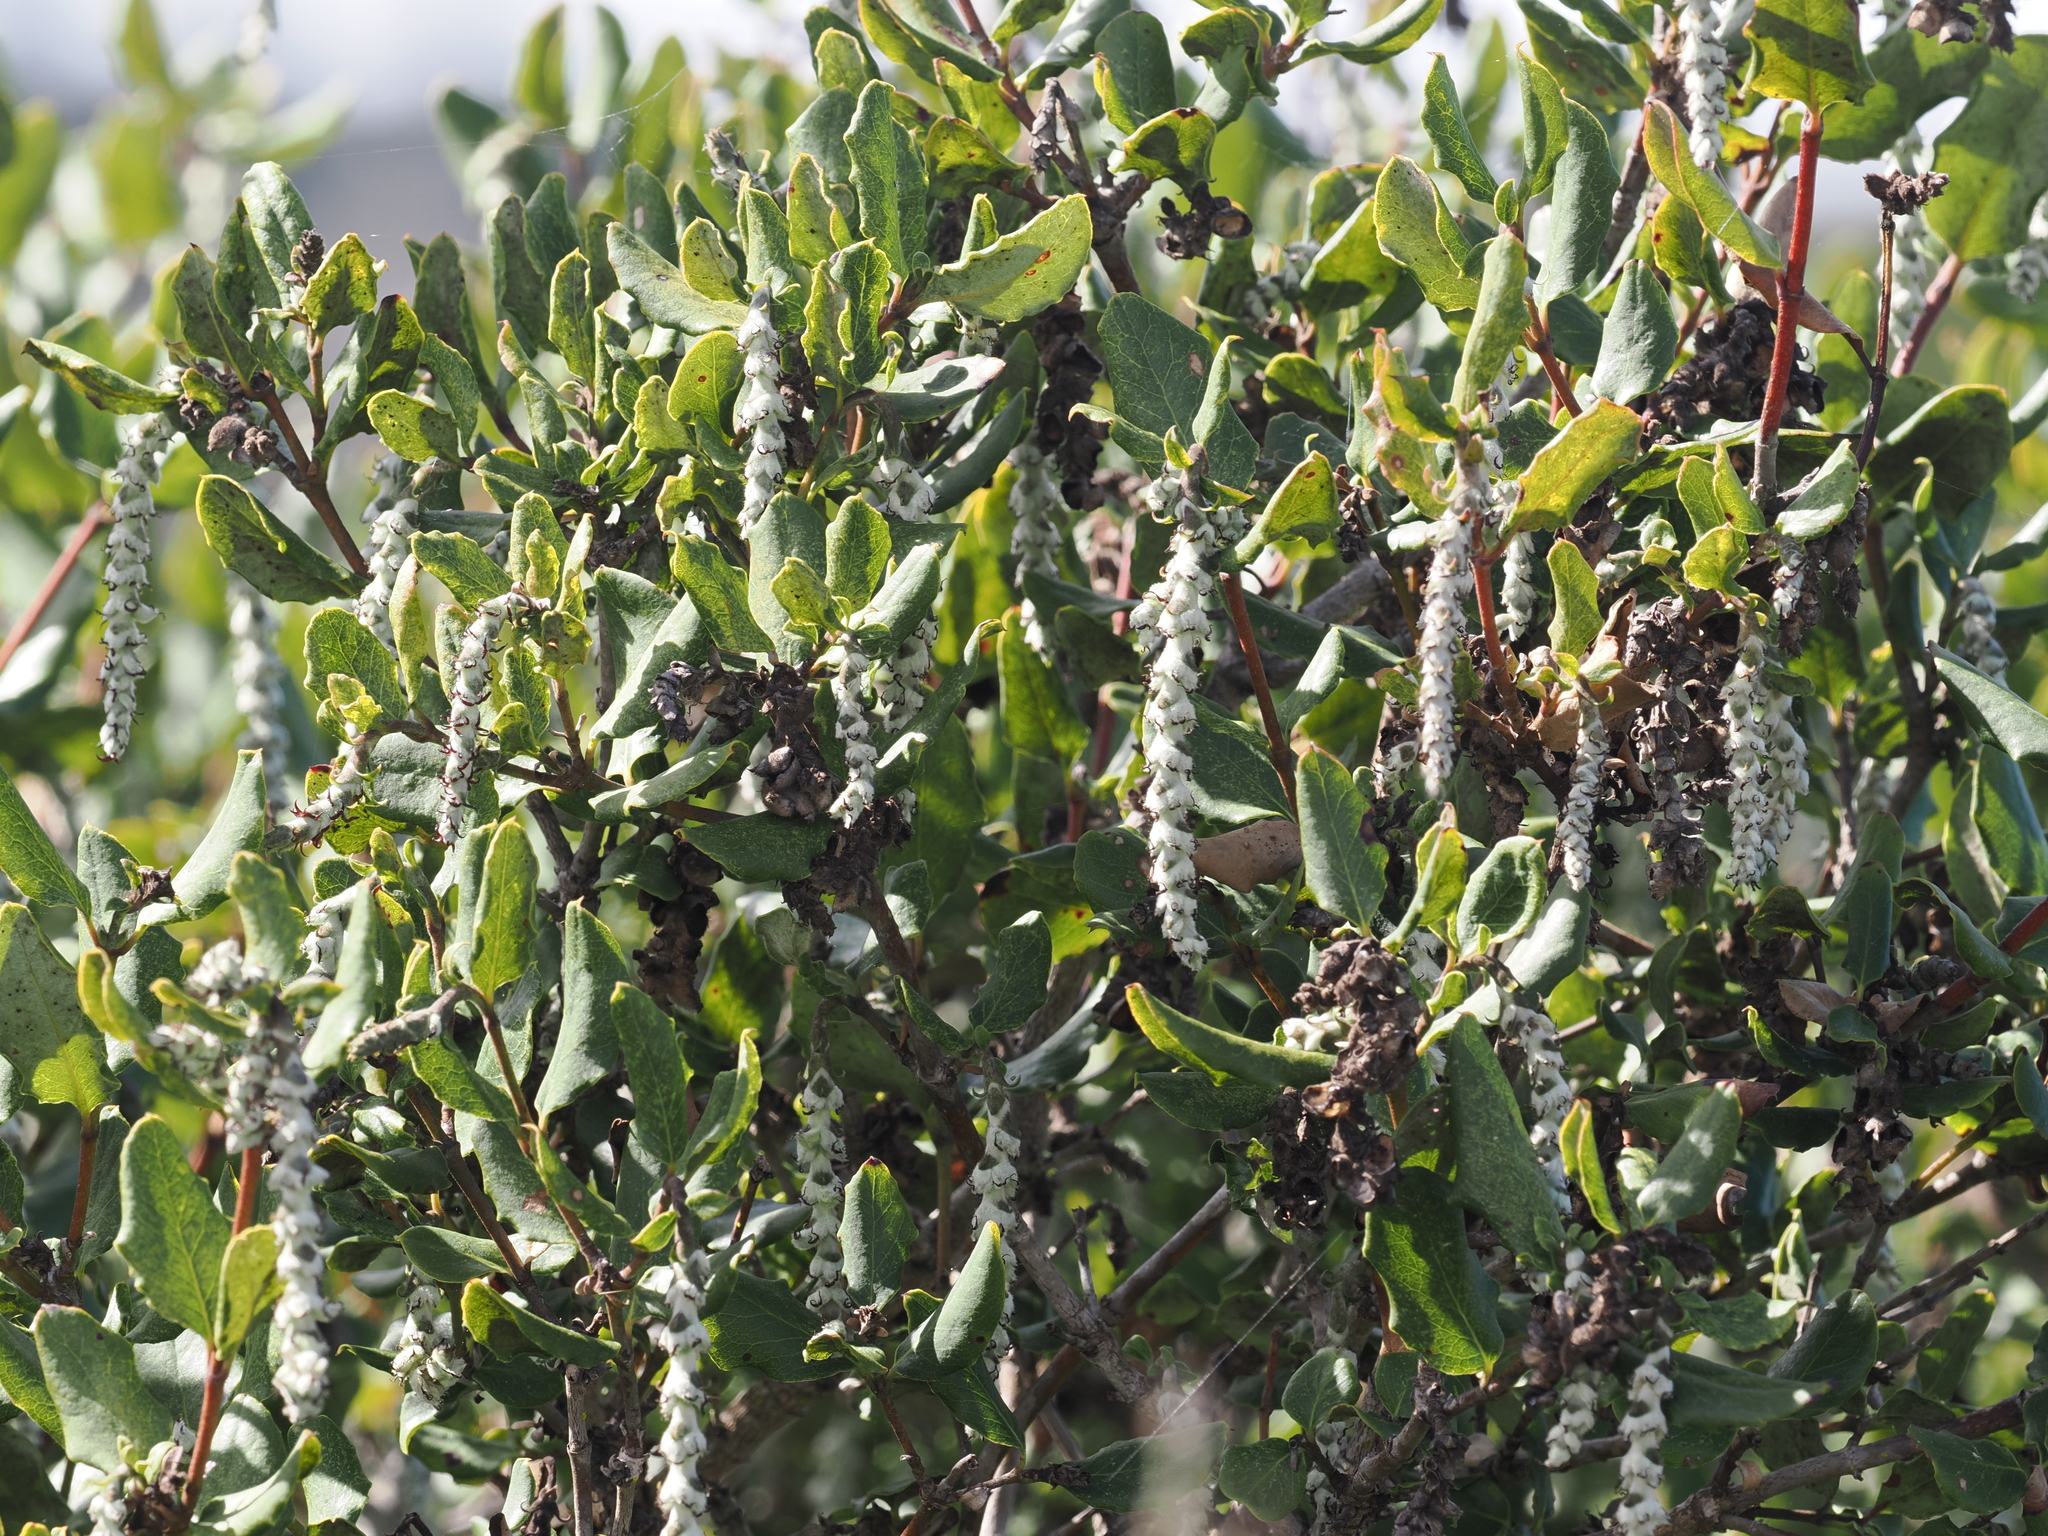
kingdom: Plantae
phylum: Tracheophyta
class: Magnoliopsida
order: Garryales
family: Garryaceae
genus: Garrya
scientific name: Garrya elliptica
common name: Silk-tassel
